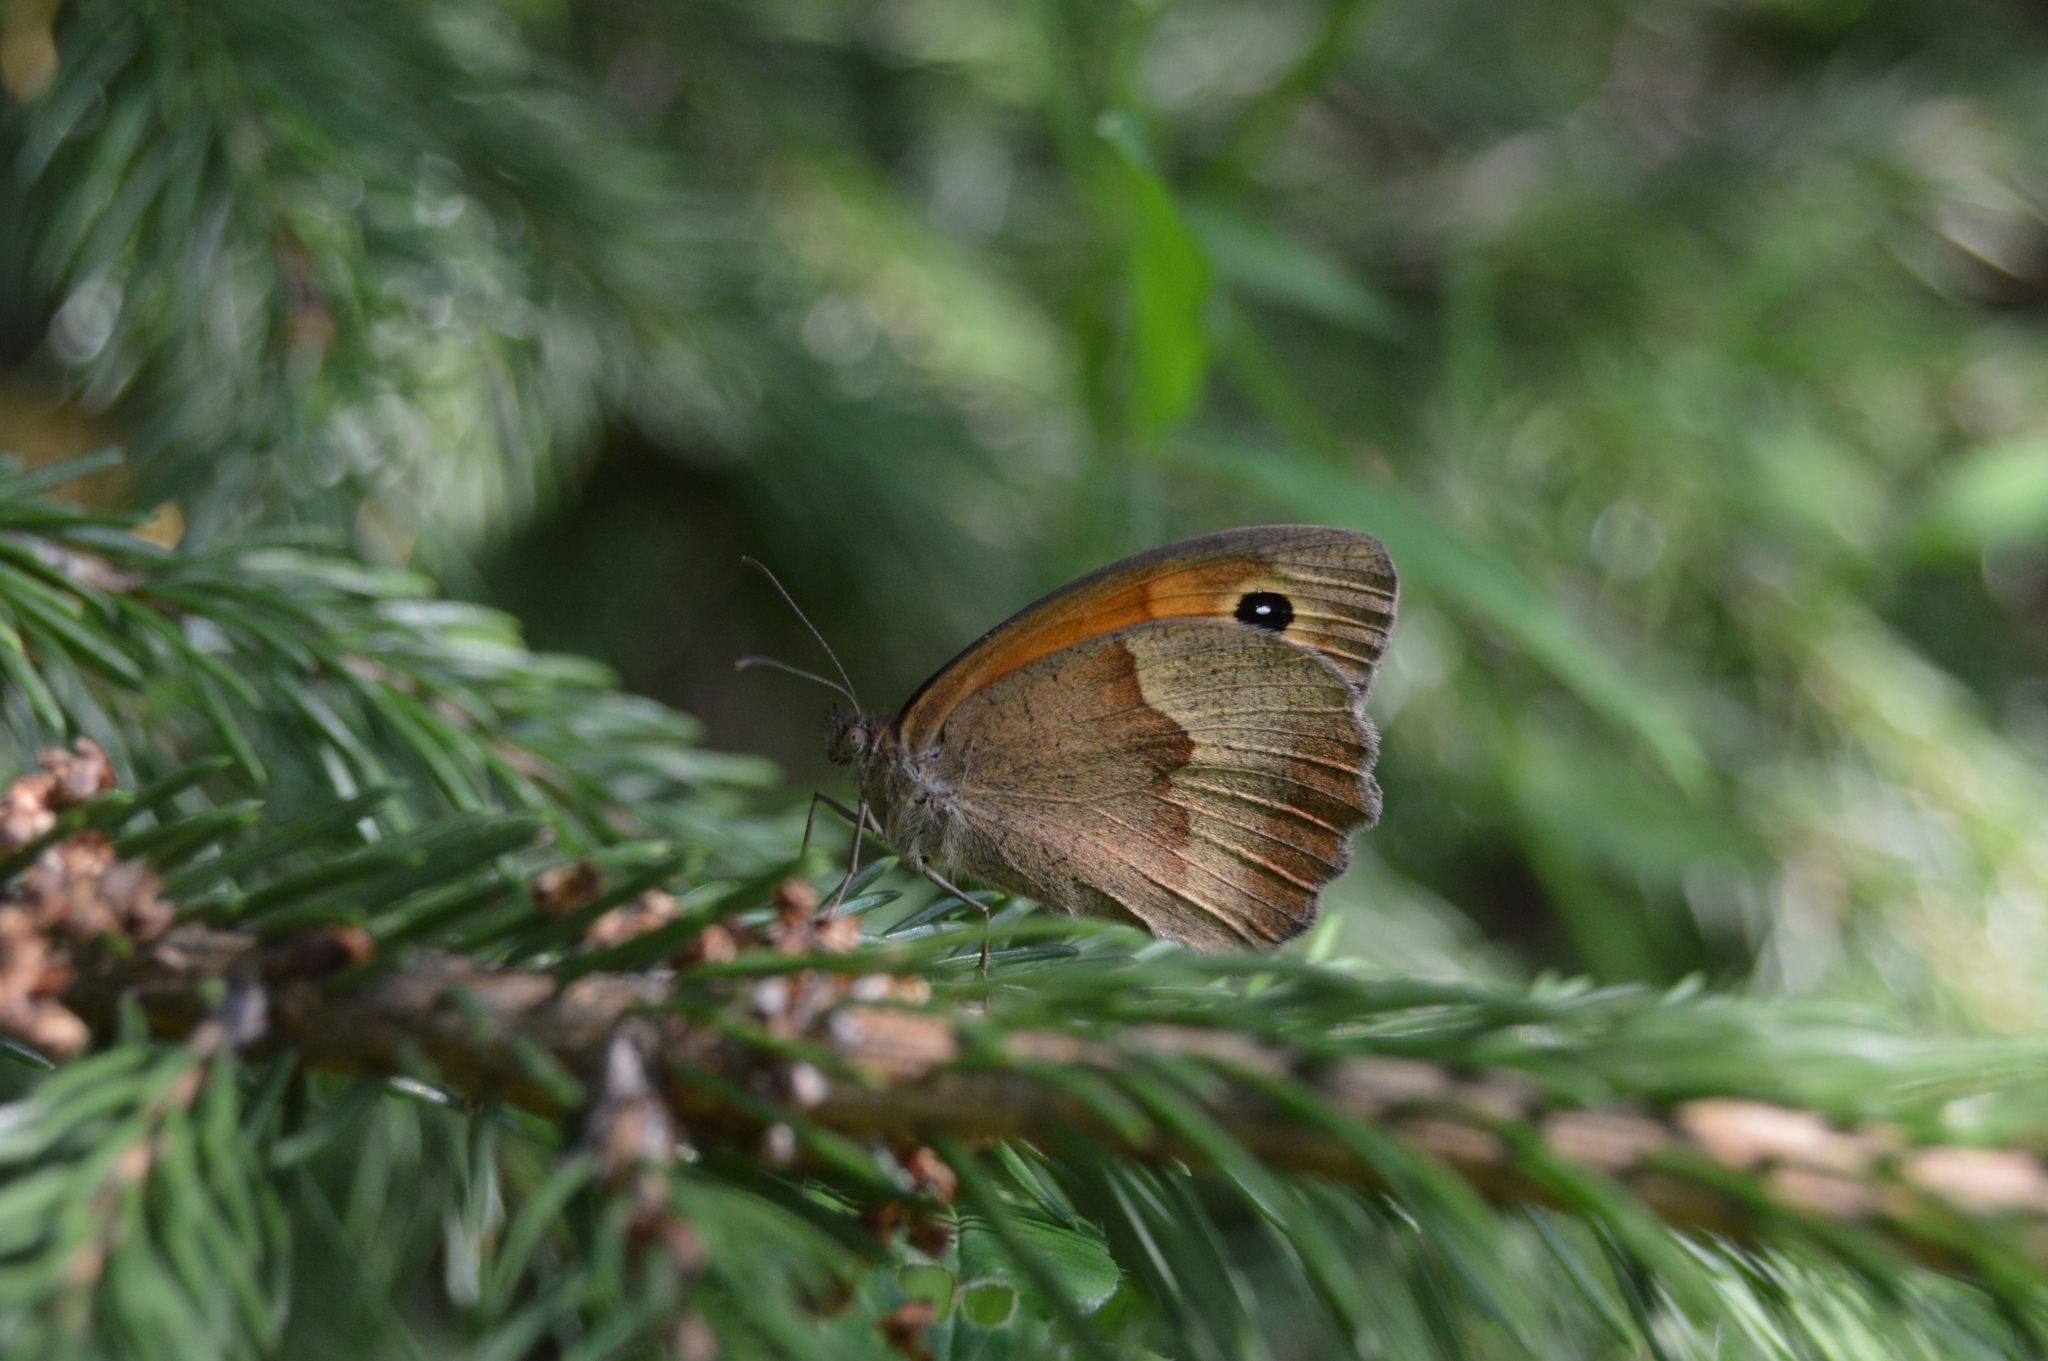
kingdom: Animalia
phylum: Arthropoda
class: Insecta
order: Lepidoptera
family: Nymphalidae
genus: Maniola
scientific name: Maniola jurtina
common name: Meadow brown
